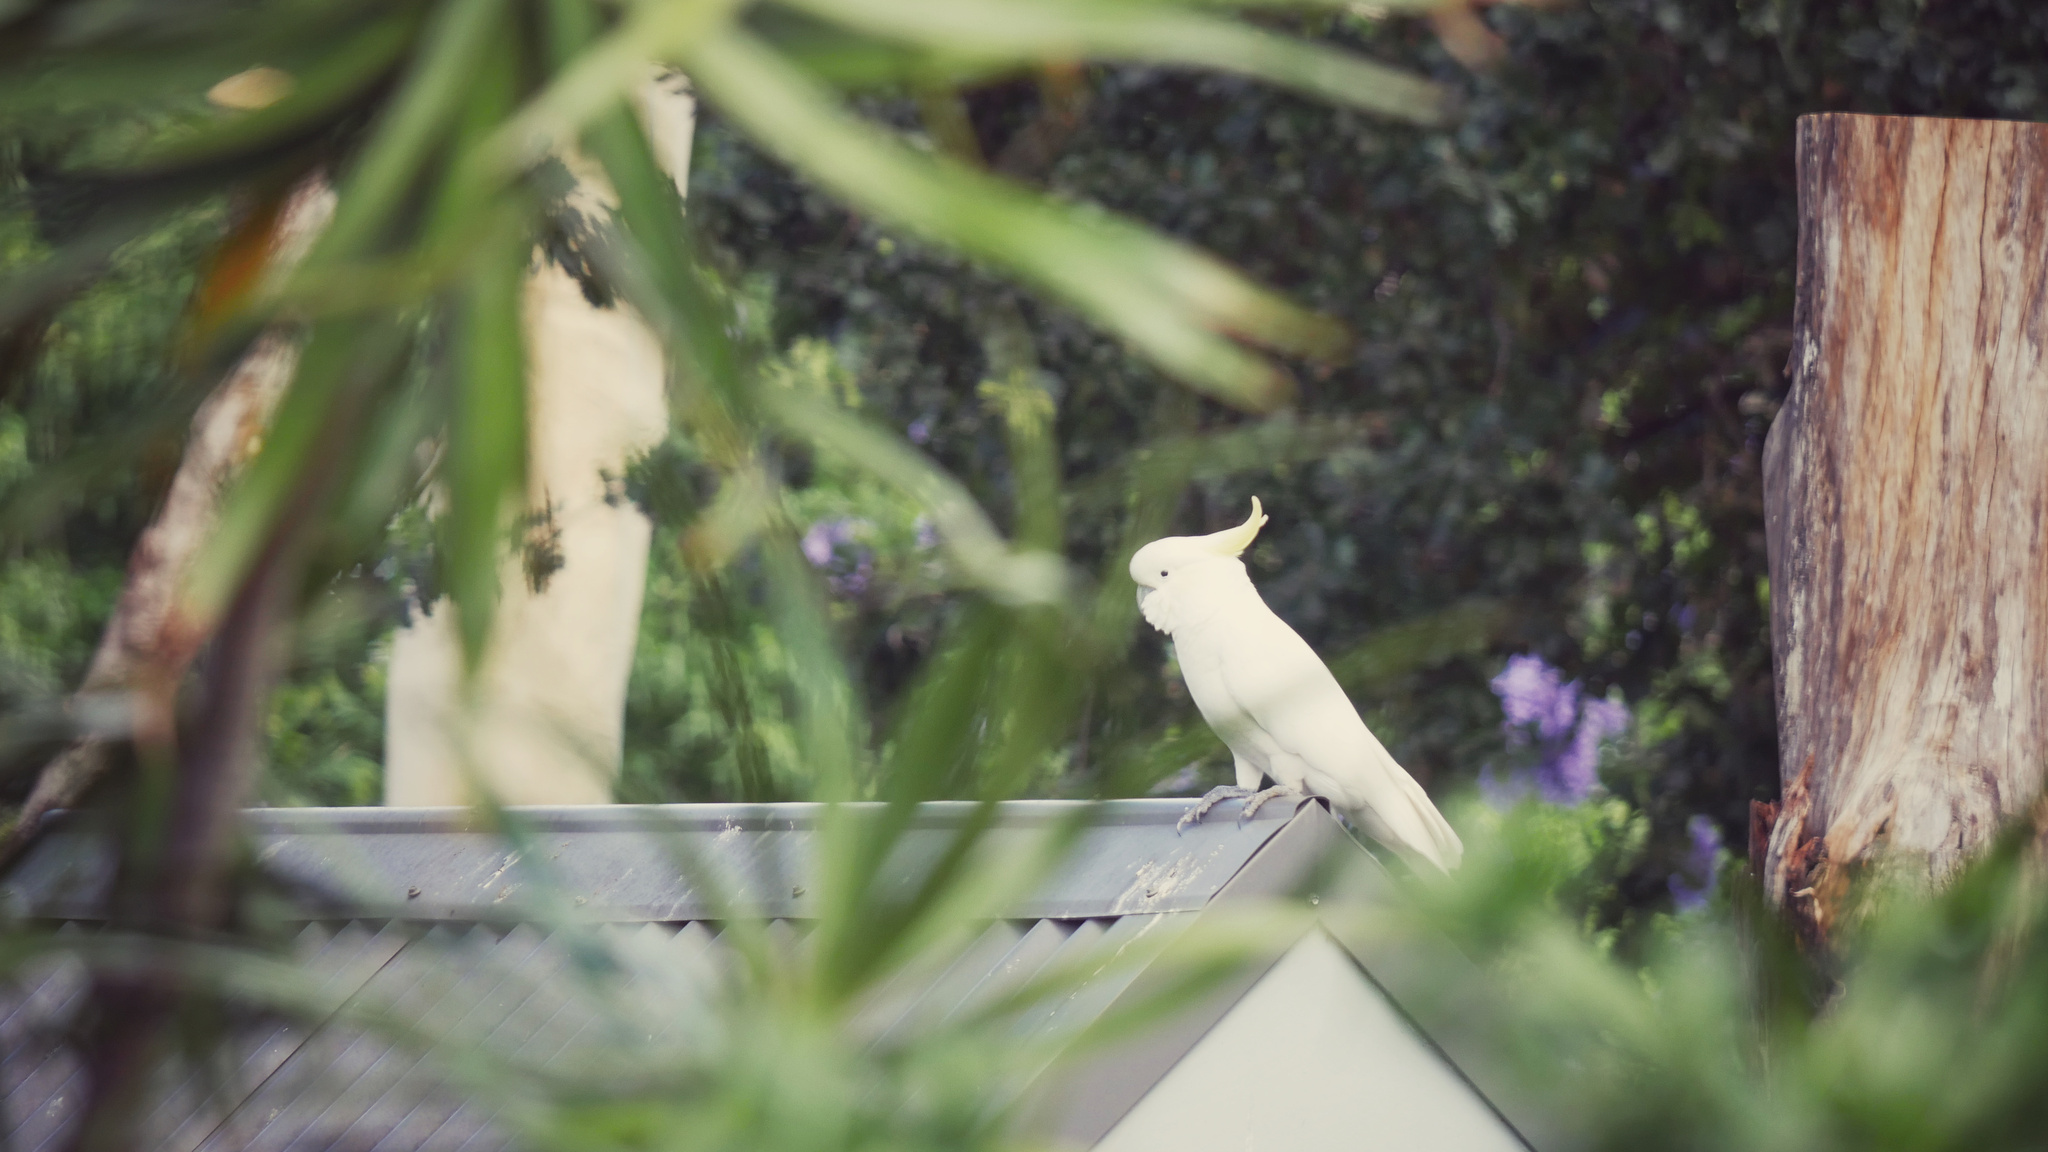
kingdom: Animalia
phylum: Chordata
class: Aves
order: Psittaciformes
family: Psittacidae
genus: Cacatua
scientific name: Cacatua galerita
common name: Sulphur-crested cockatoo
